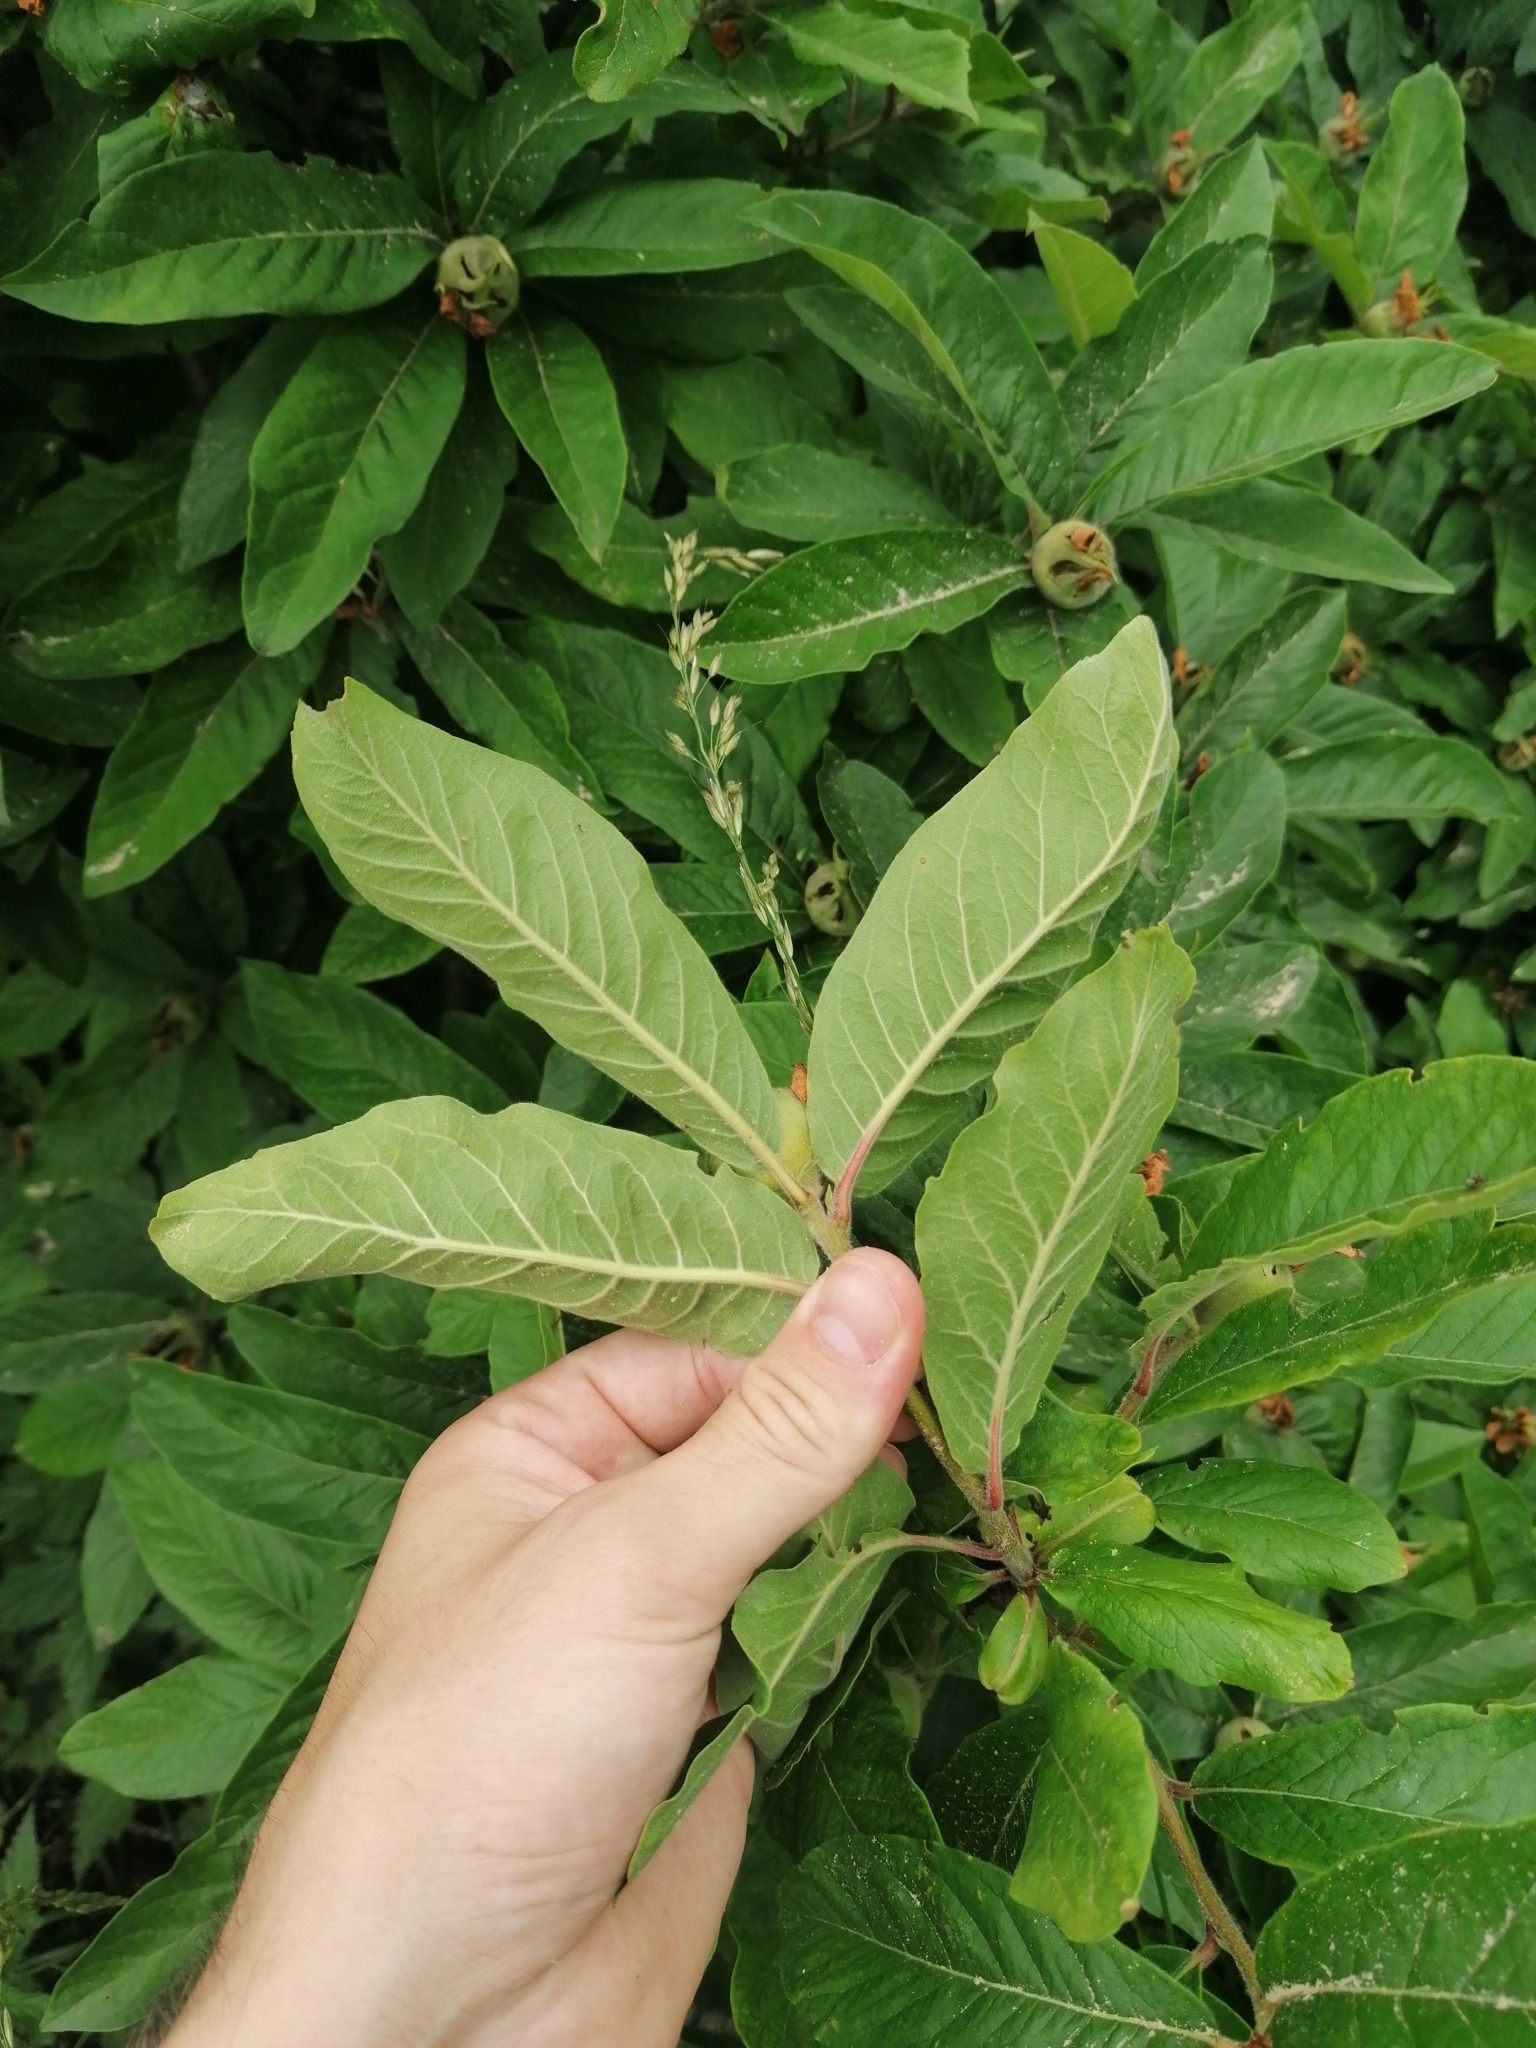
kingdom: Plantae
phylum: Tracheophyta
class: Magnoliopsida
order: Rosales
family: Rosaceae
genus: Mespilus
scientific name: Mespilus germanica
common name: Medlar
